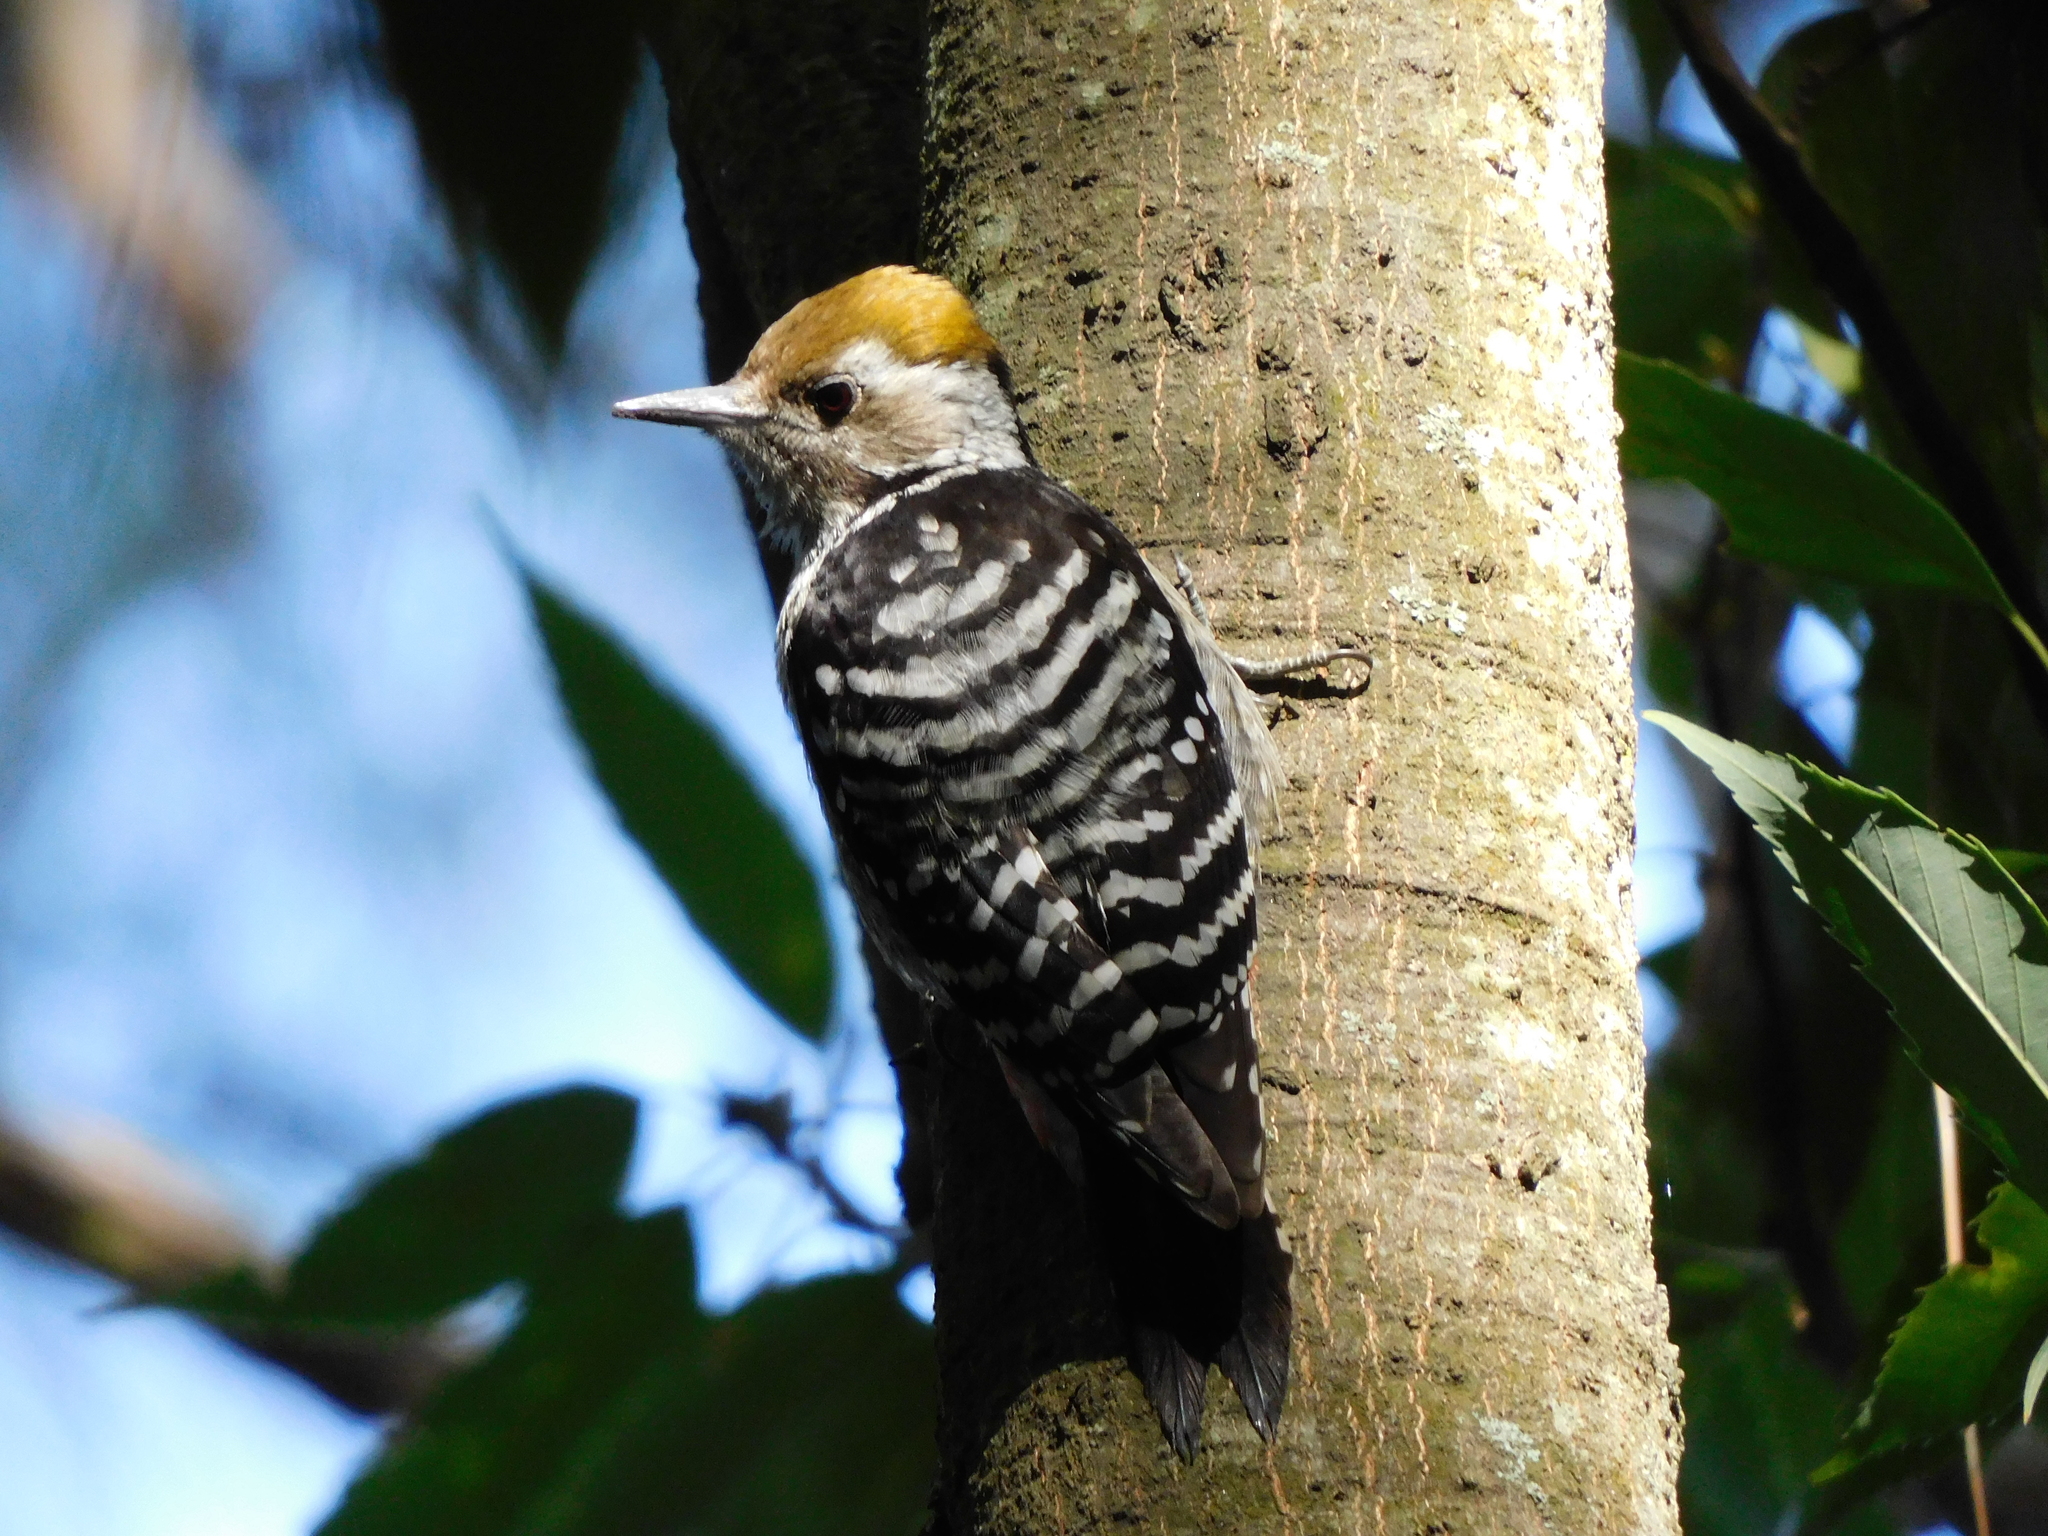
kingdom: Animalia
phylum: Chordata
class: Aves
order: Piciformes
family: Picidae
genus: Dendrocoptes
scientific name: Dendrocoptes auriceps
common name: Brown-fronted woodpecker
